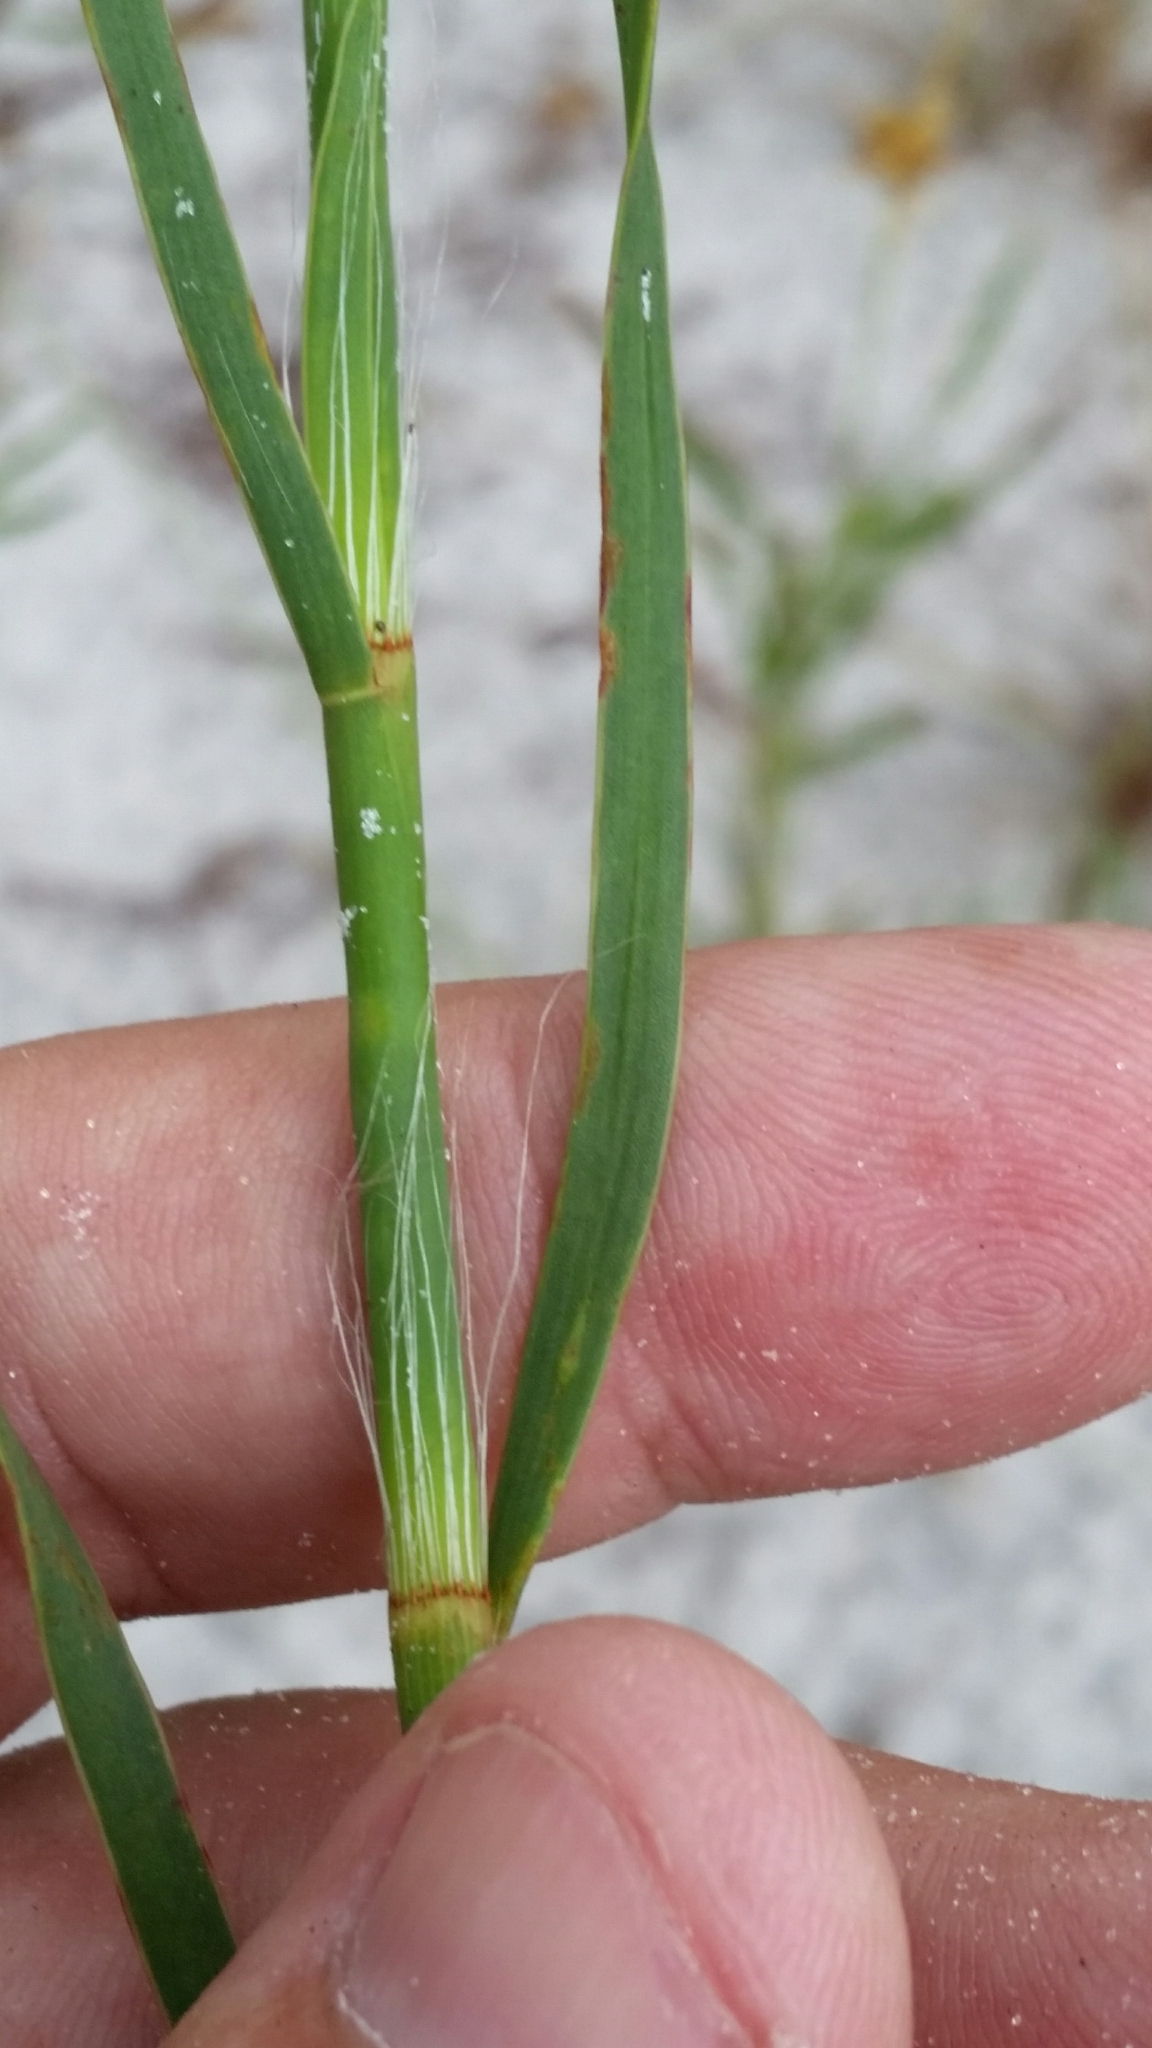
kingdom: Plantae
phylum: Tracheophyta
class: Magnoliopsida
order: Caryophyllales
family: Polygonaceae
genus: Polygonella
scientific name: Polygonella robusta
